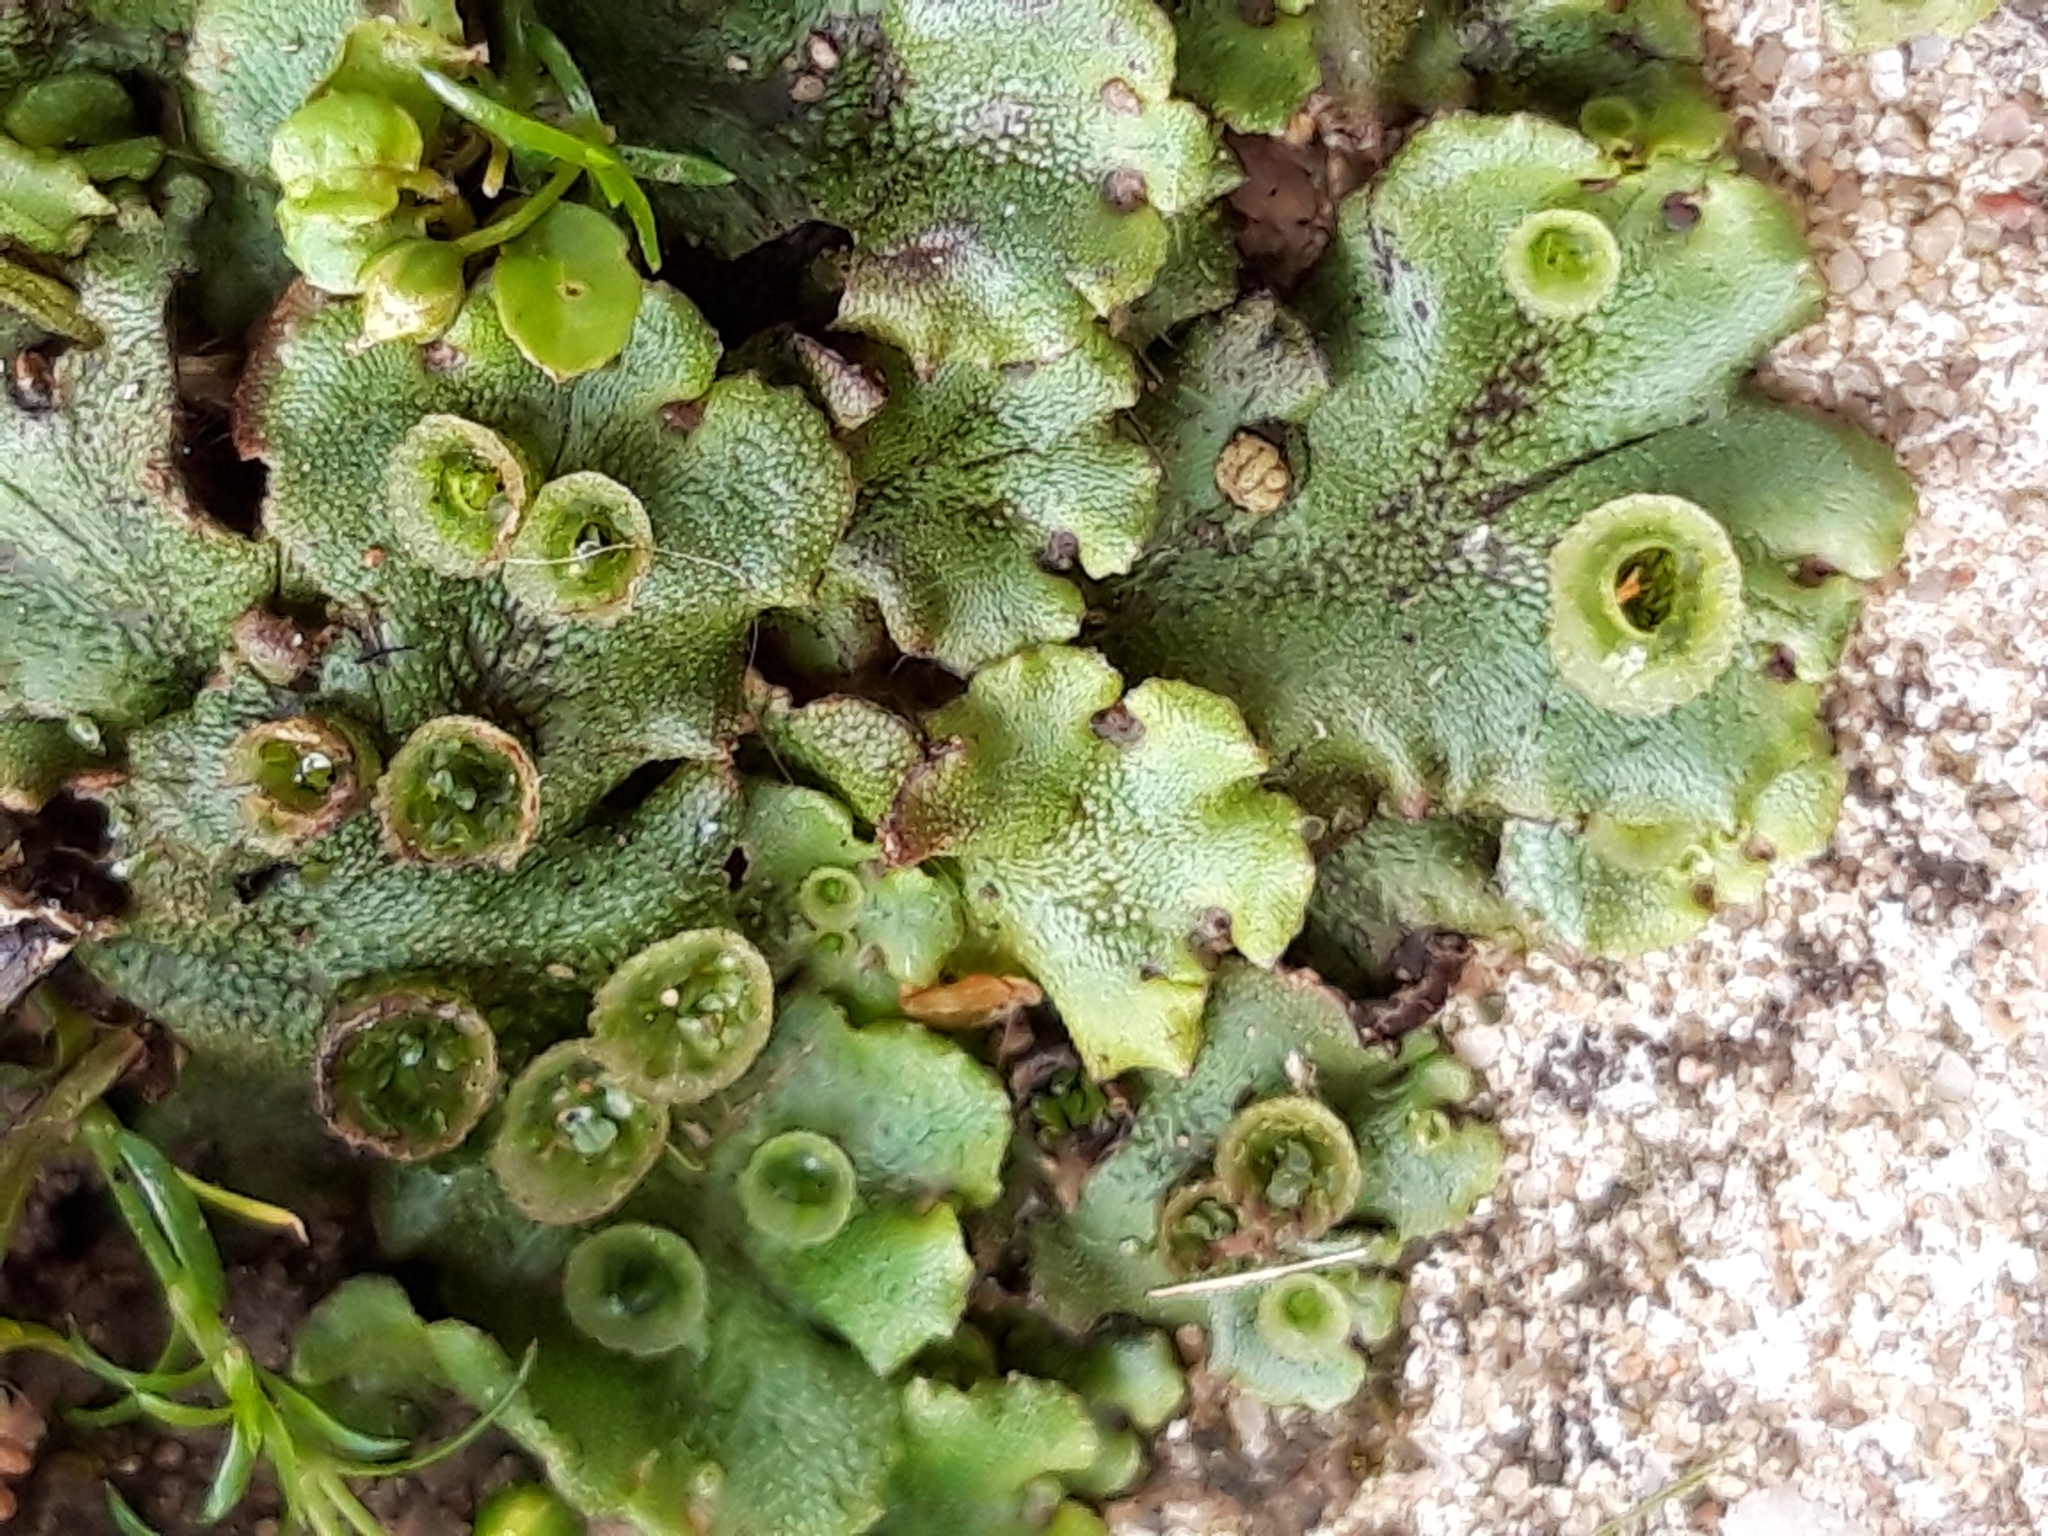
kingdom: Plantae
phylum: Marchantiophyta
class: Marchantiopsida
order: Marchantiales
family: Marchantiaceae
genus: Marchantia
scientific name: Marchantia polymorpha
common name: Common liverwort
